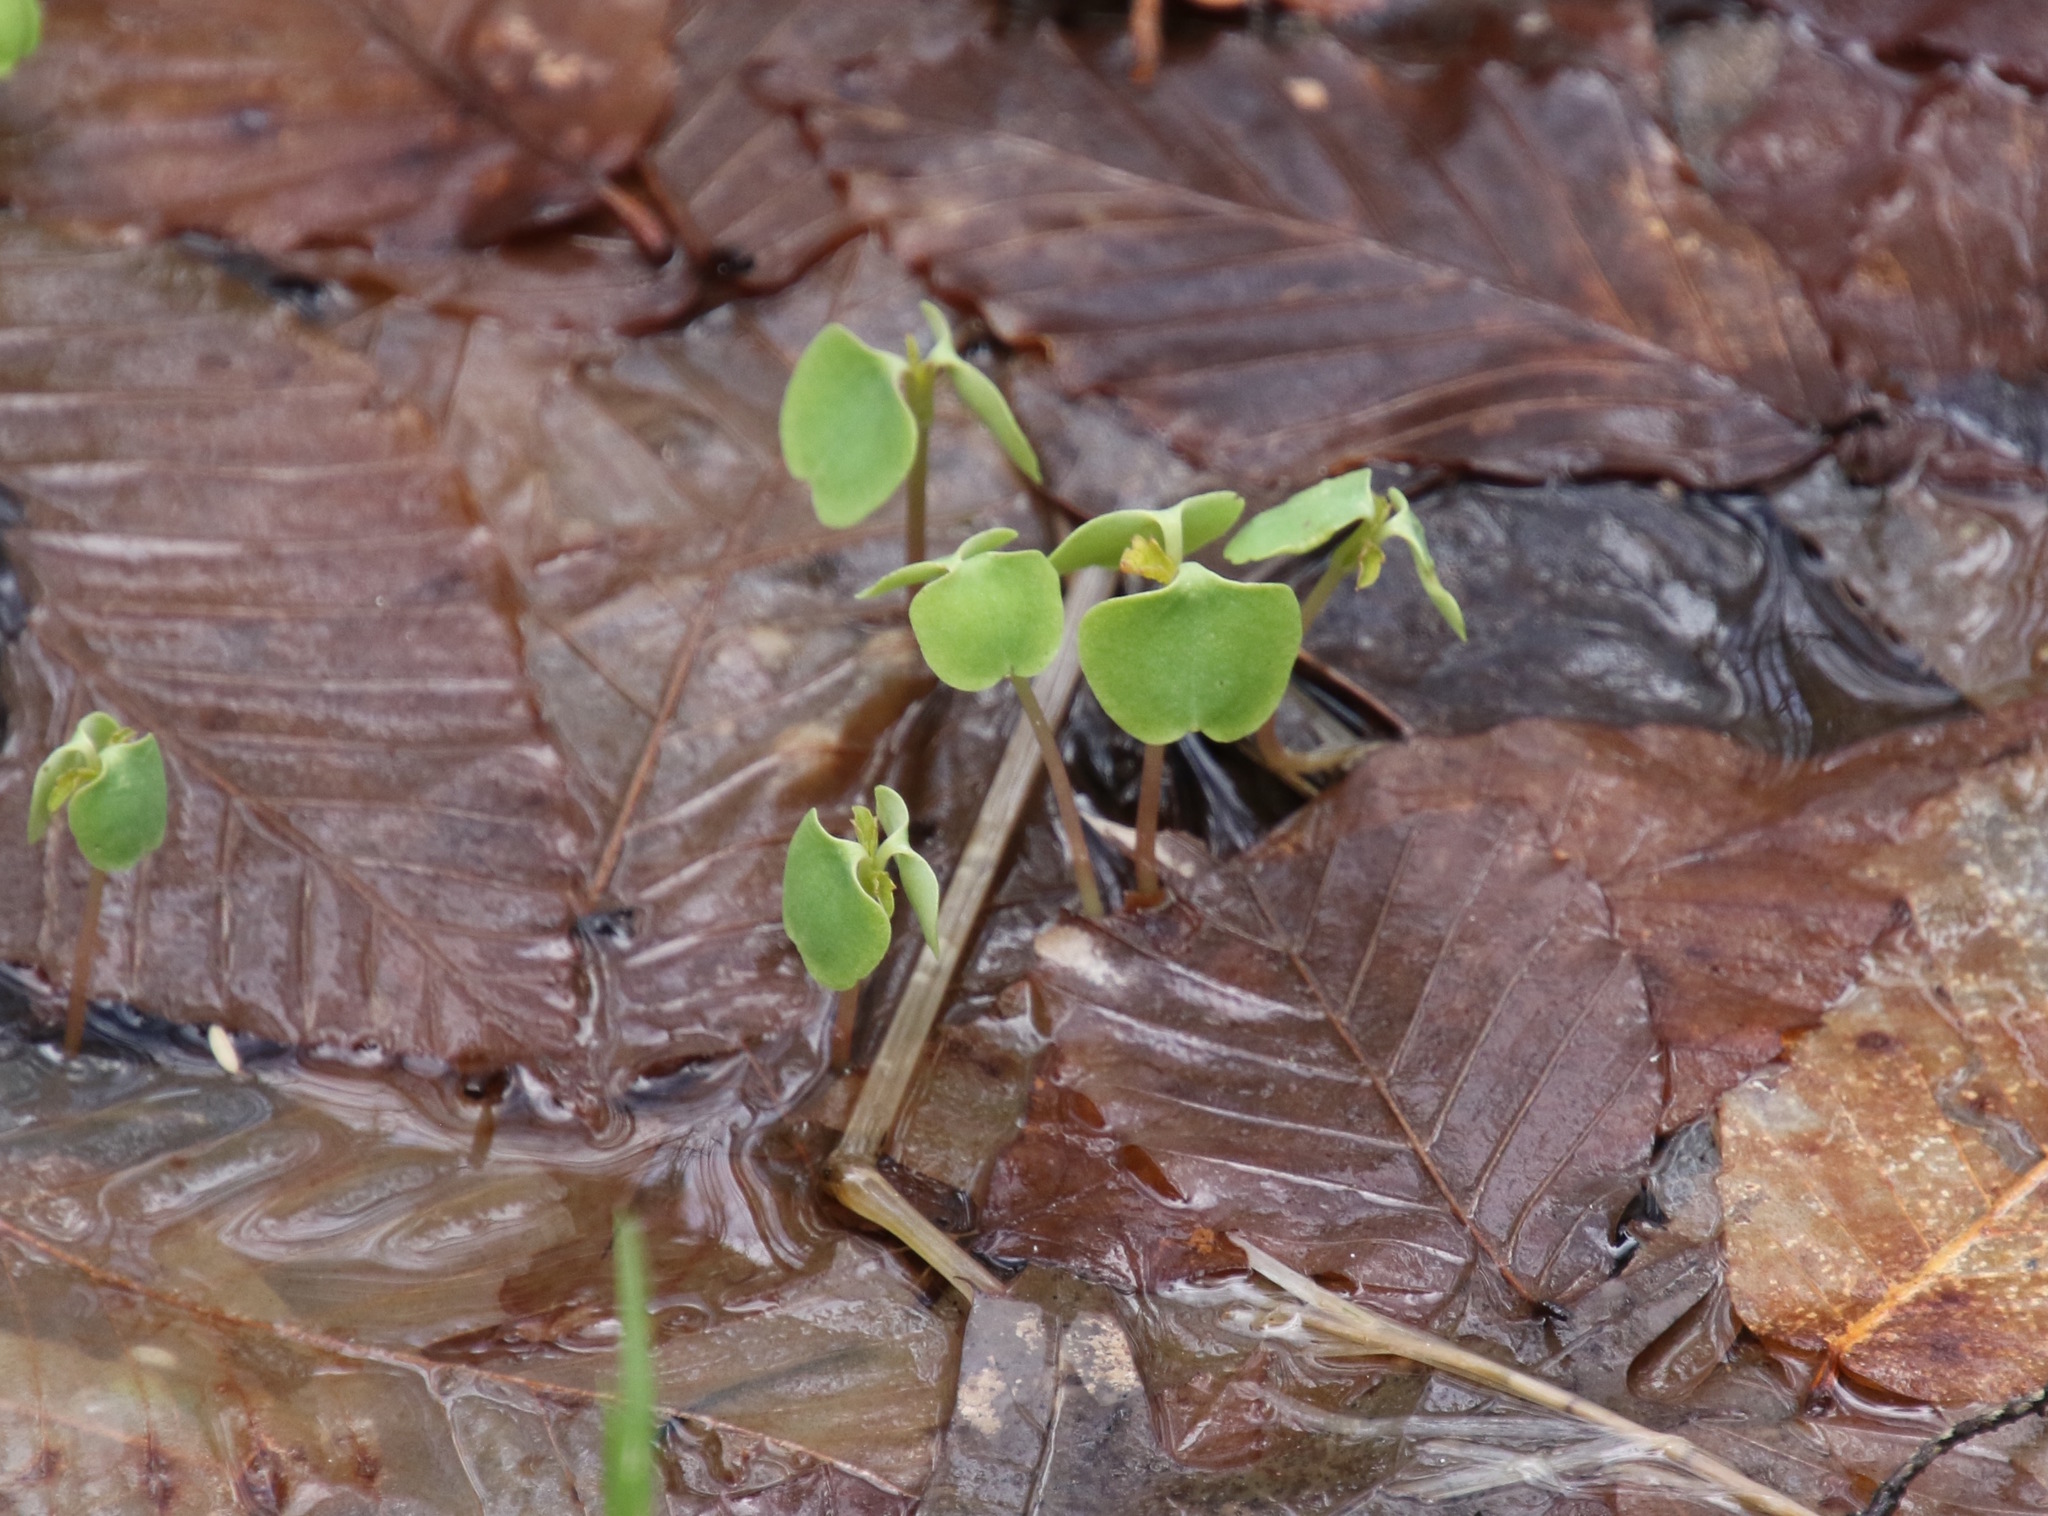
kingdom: Plantae
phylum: Tracheophyta
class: Magnoliopsida
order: Ericales
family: Balsaminaceae
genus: Impatiens
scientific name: Impatiens
